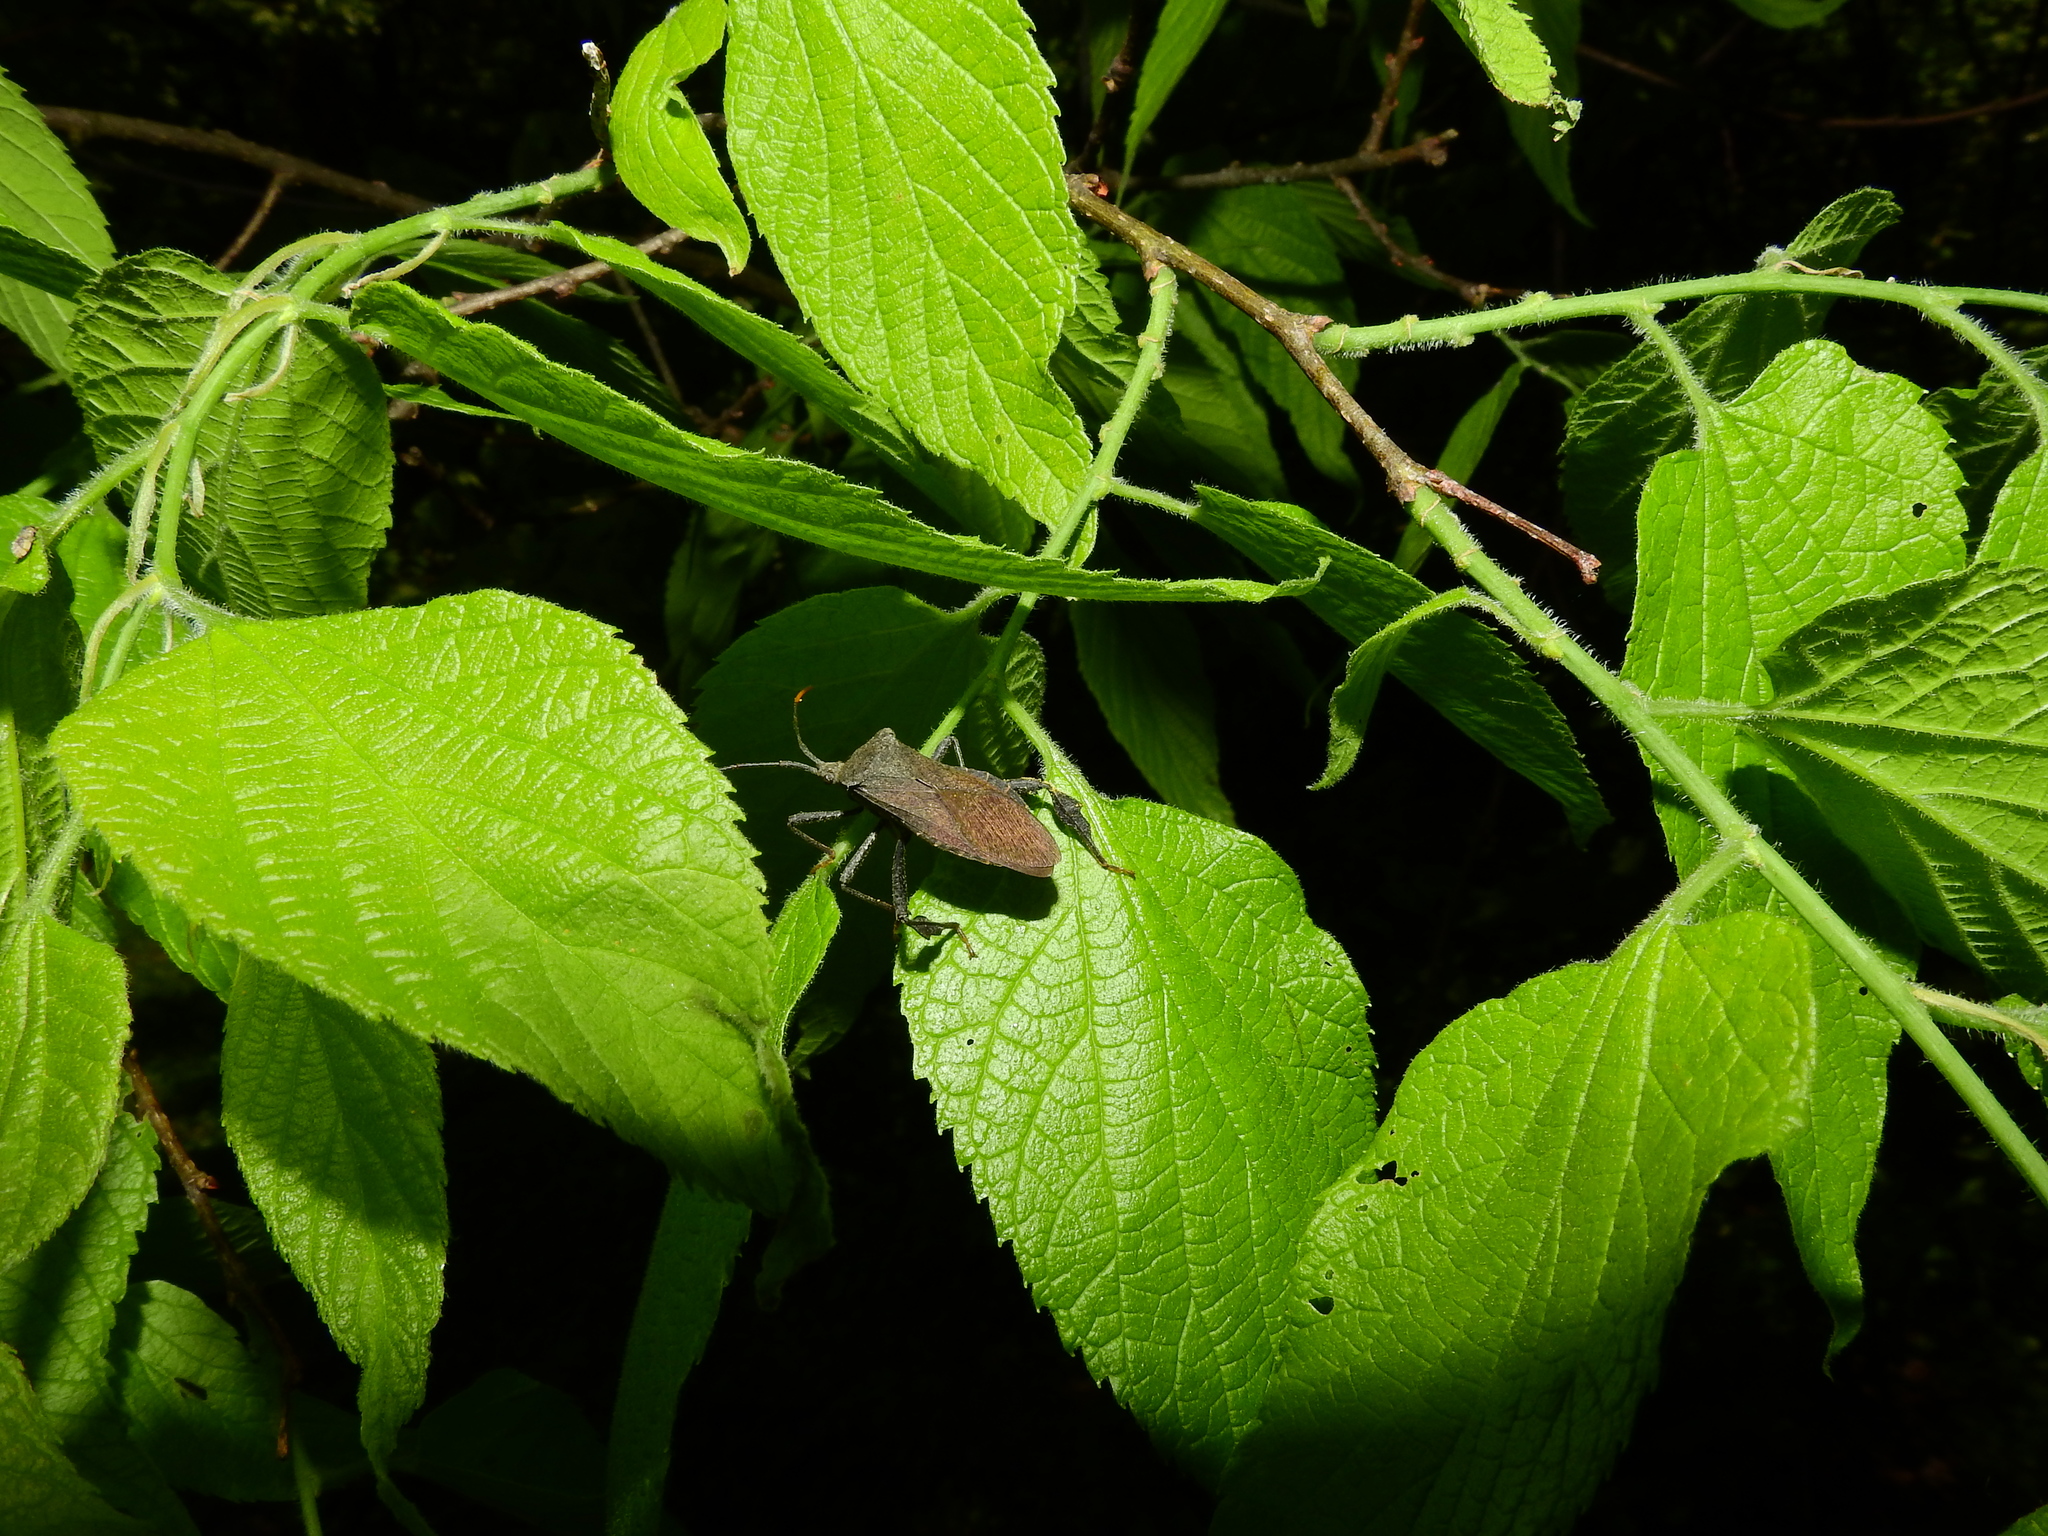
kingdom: Animalia
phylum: Arthropoda
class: Insecta
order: Hemiptera
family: Coreidae
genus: Acanthocephala
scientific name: Acanthocephala terminalis
